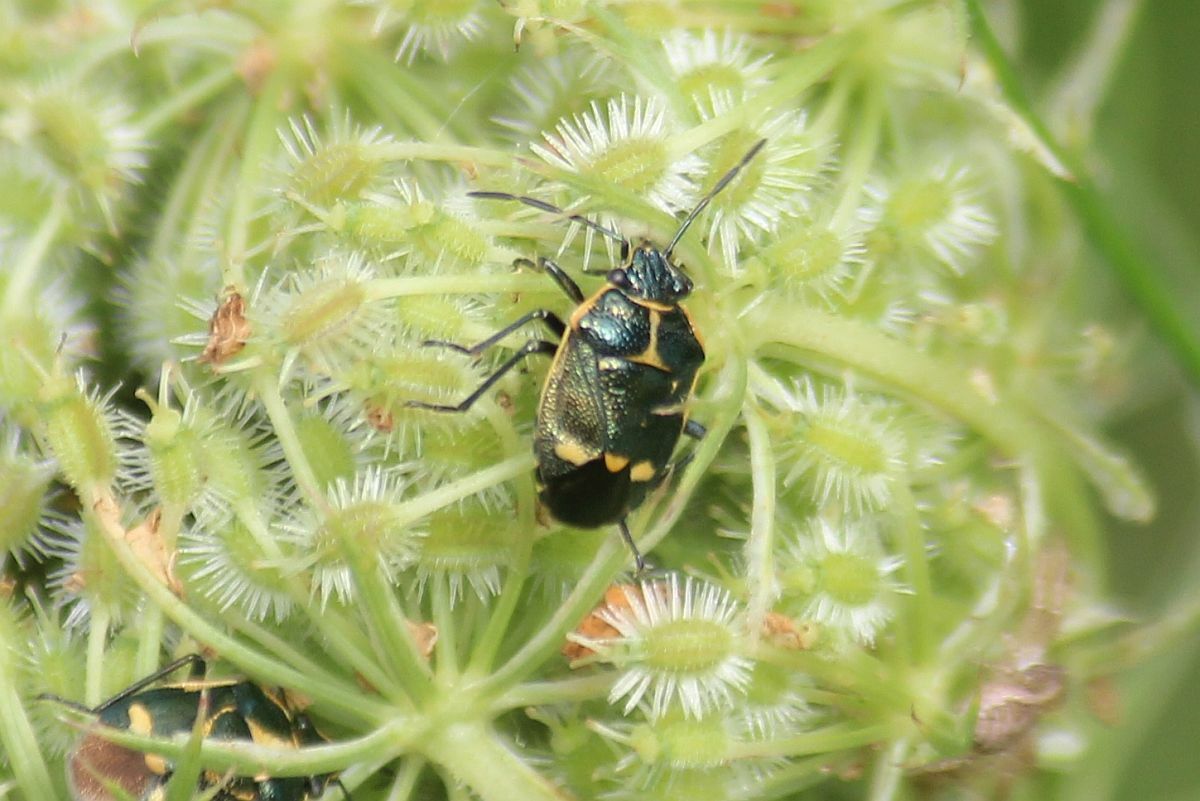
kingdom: Animalia
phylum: Arthropoda
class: Insecta
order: Hemiptera
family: Pentatomidae
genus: Eurydema
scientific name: Eurydema oleracea
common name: Cabbage bug
